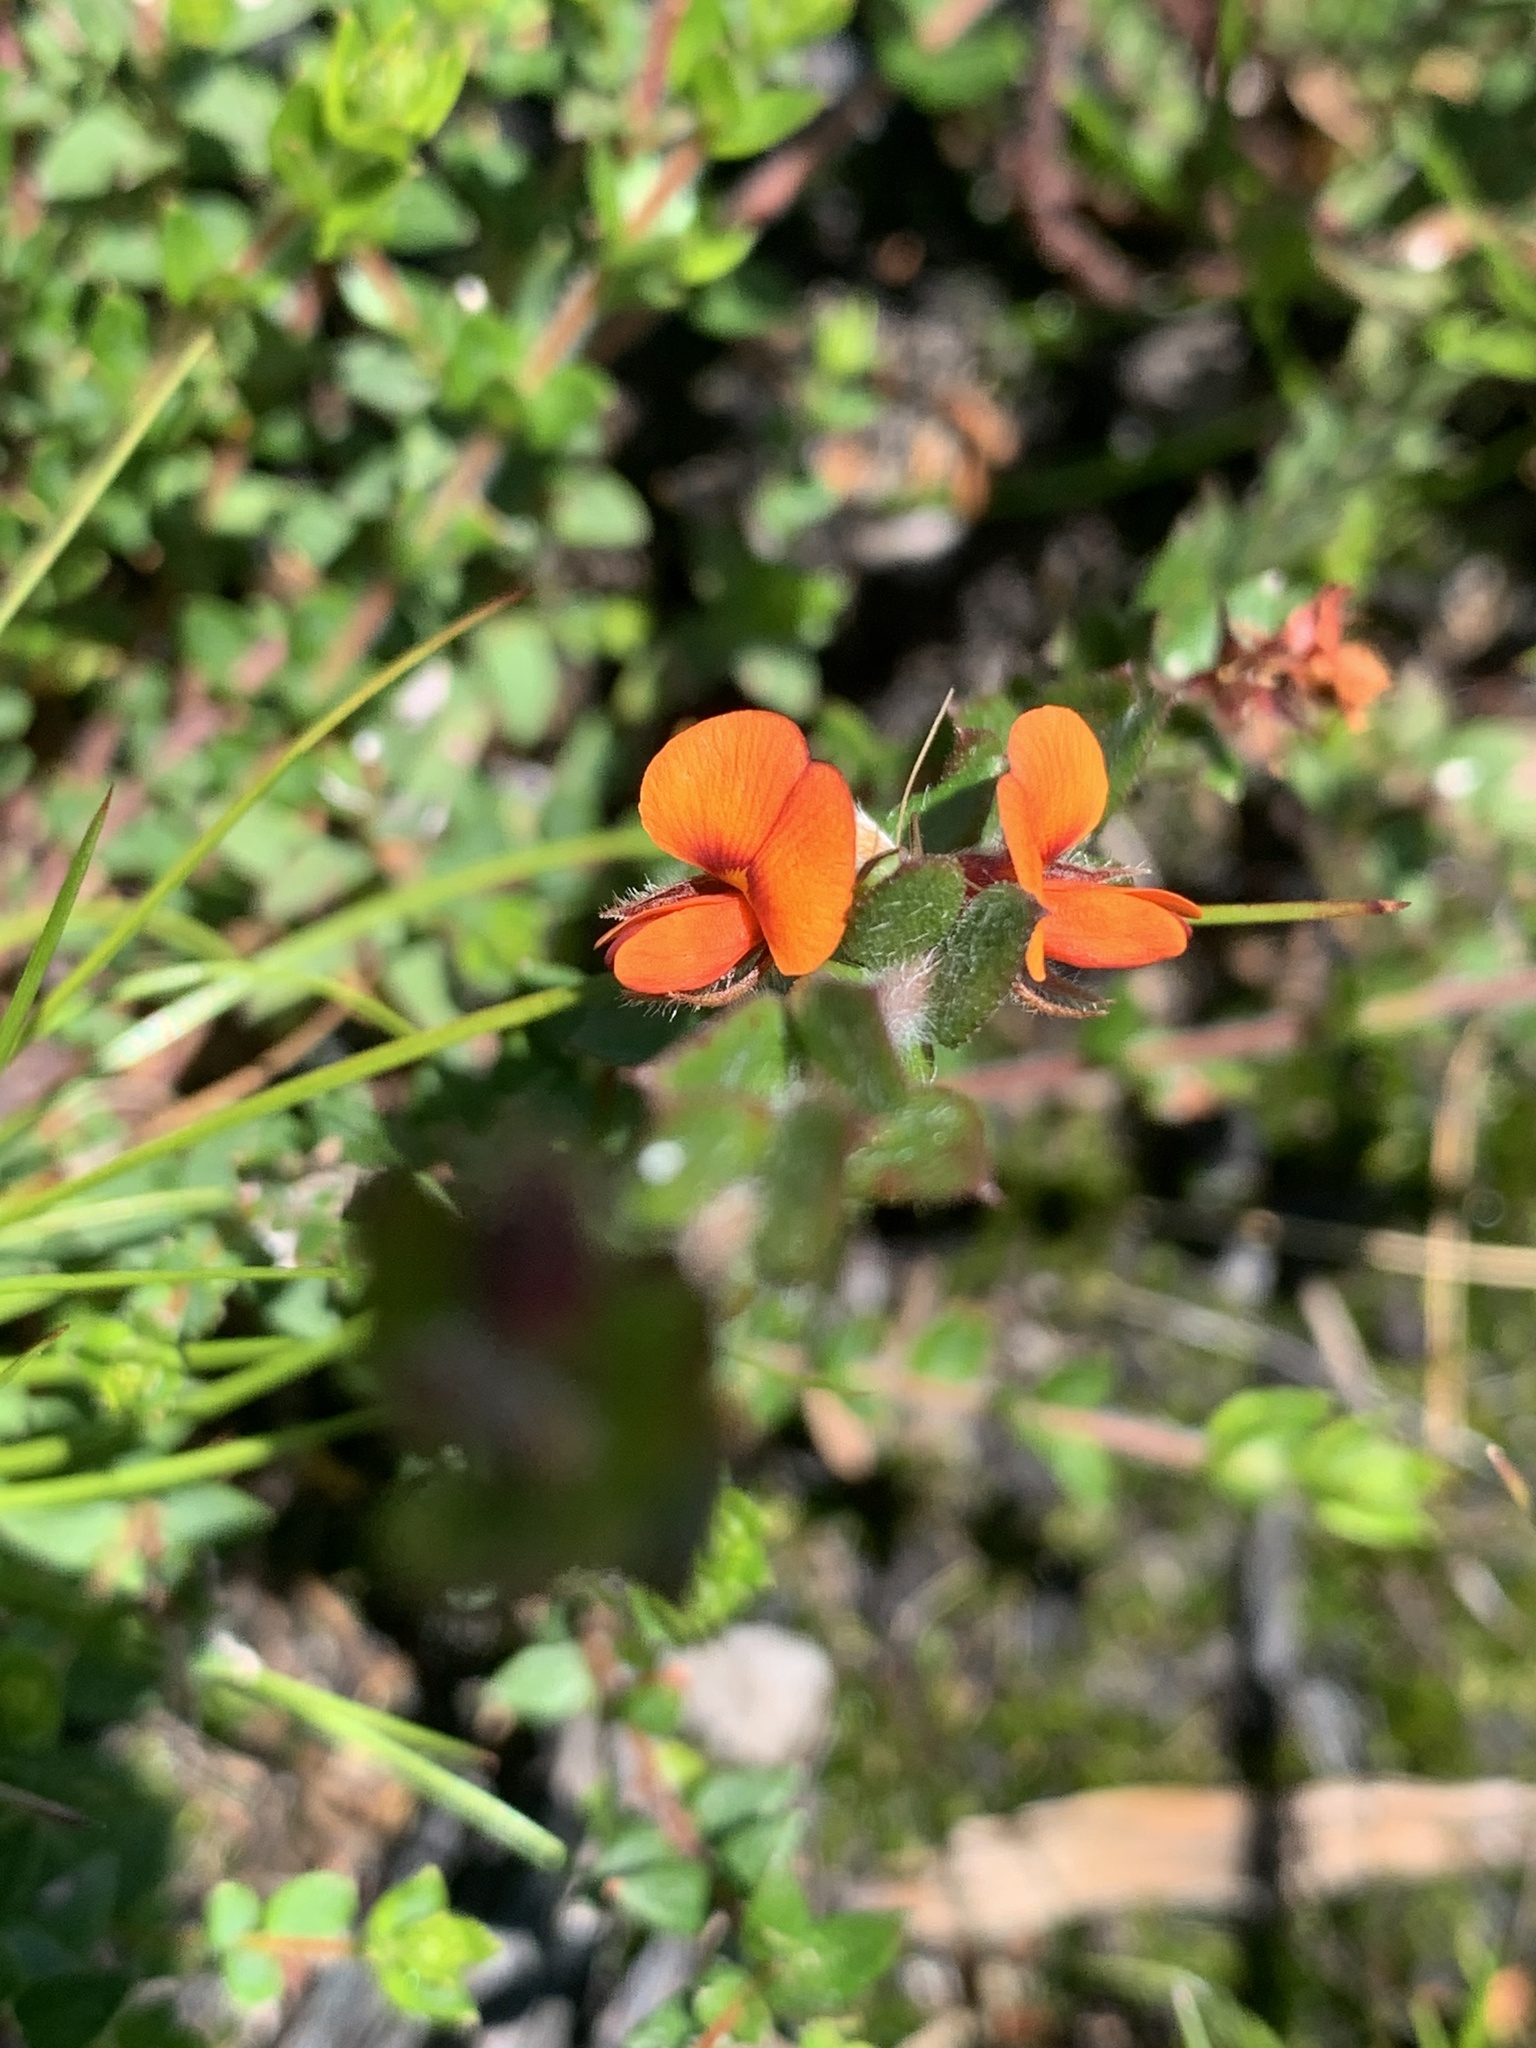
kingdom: Plantae
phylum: Tracheophyta
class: Magnoliopsida
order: Fabales
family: Fabaceae
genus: Oxylobium
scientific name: Oxylobium cordifolium
